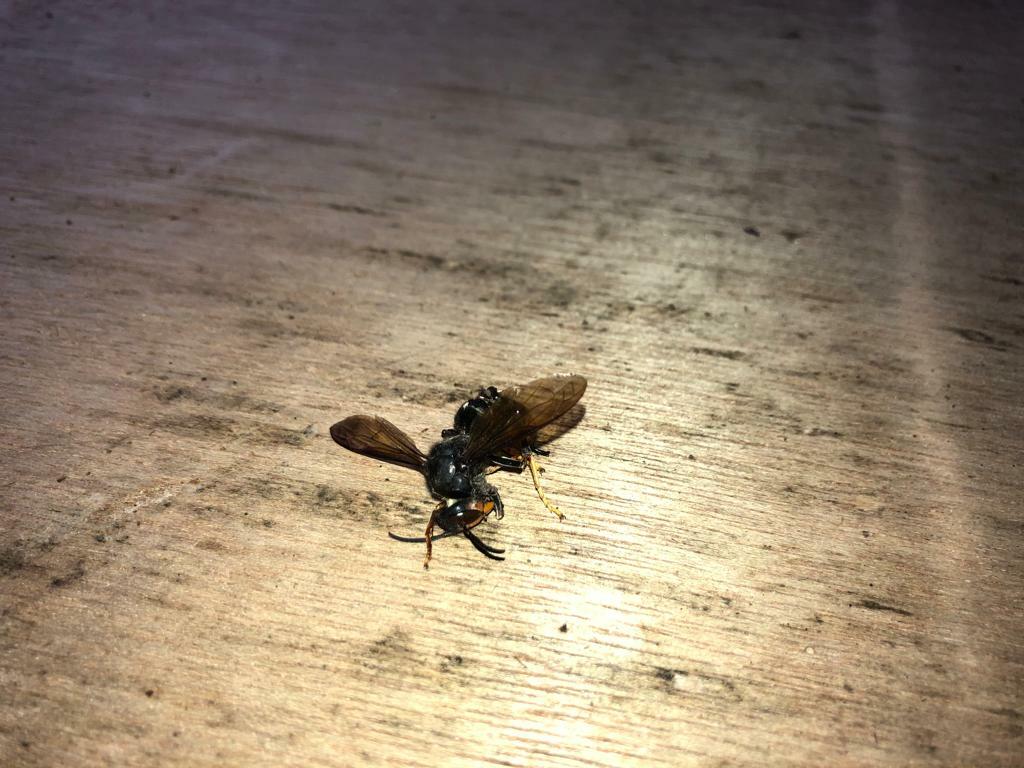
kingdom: Animalia
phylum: Arthropoda
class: Insecta
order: Hymenoptera
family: Vespidae
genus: Vespa
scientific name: Vespa velutina
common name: Asian hornet
